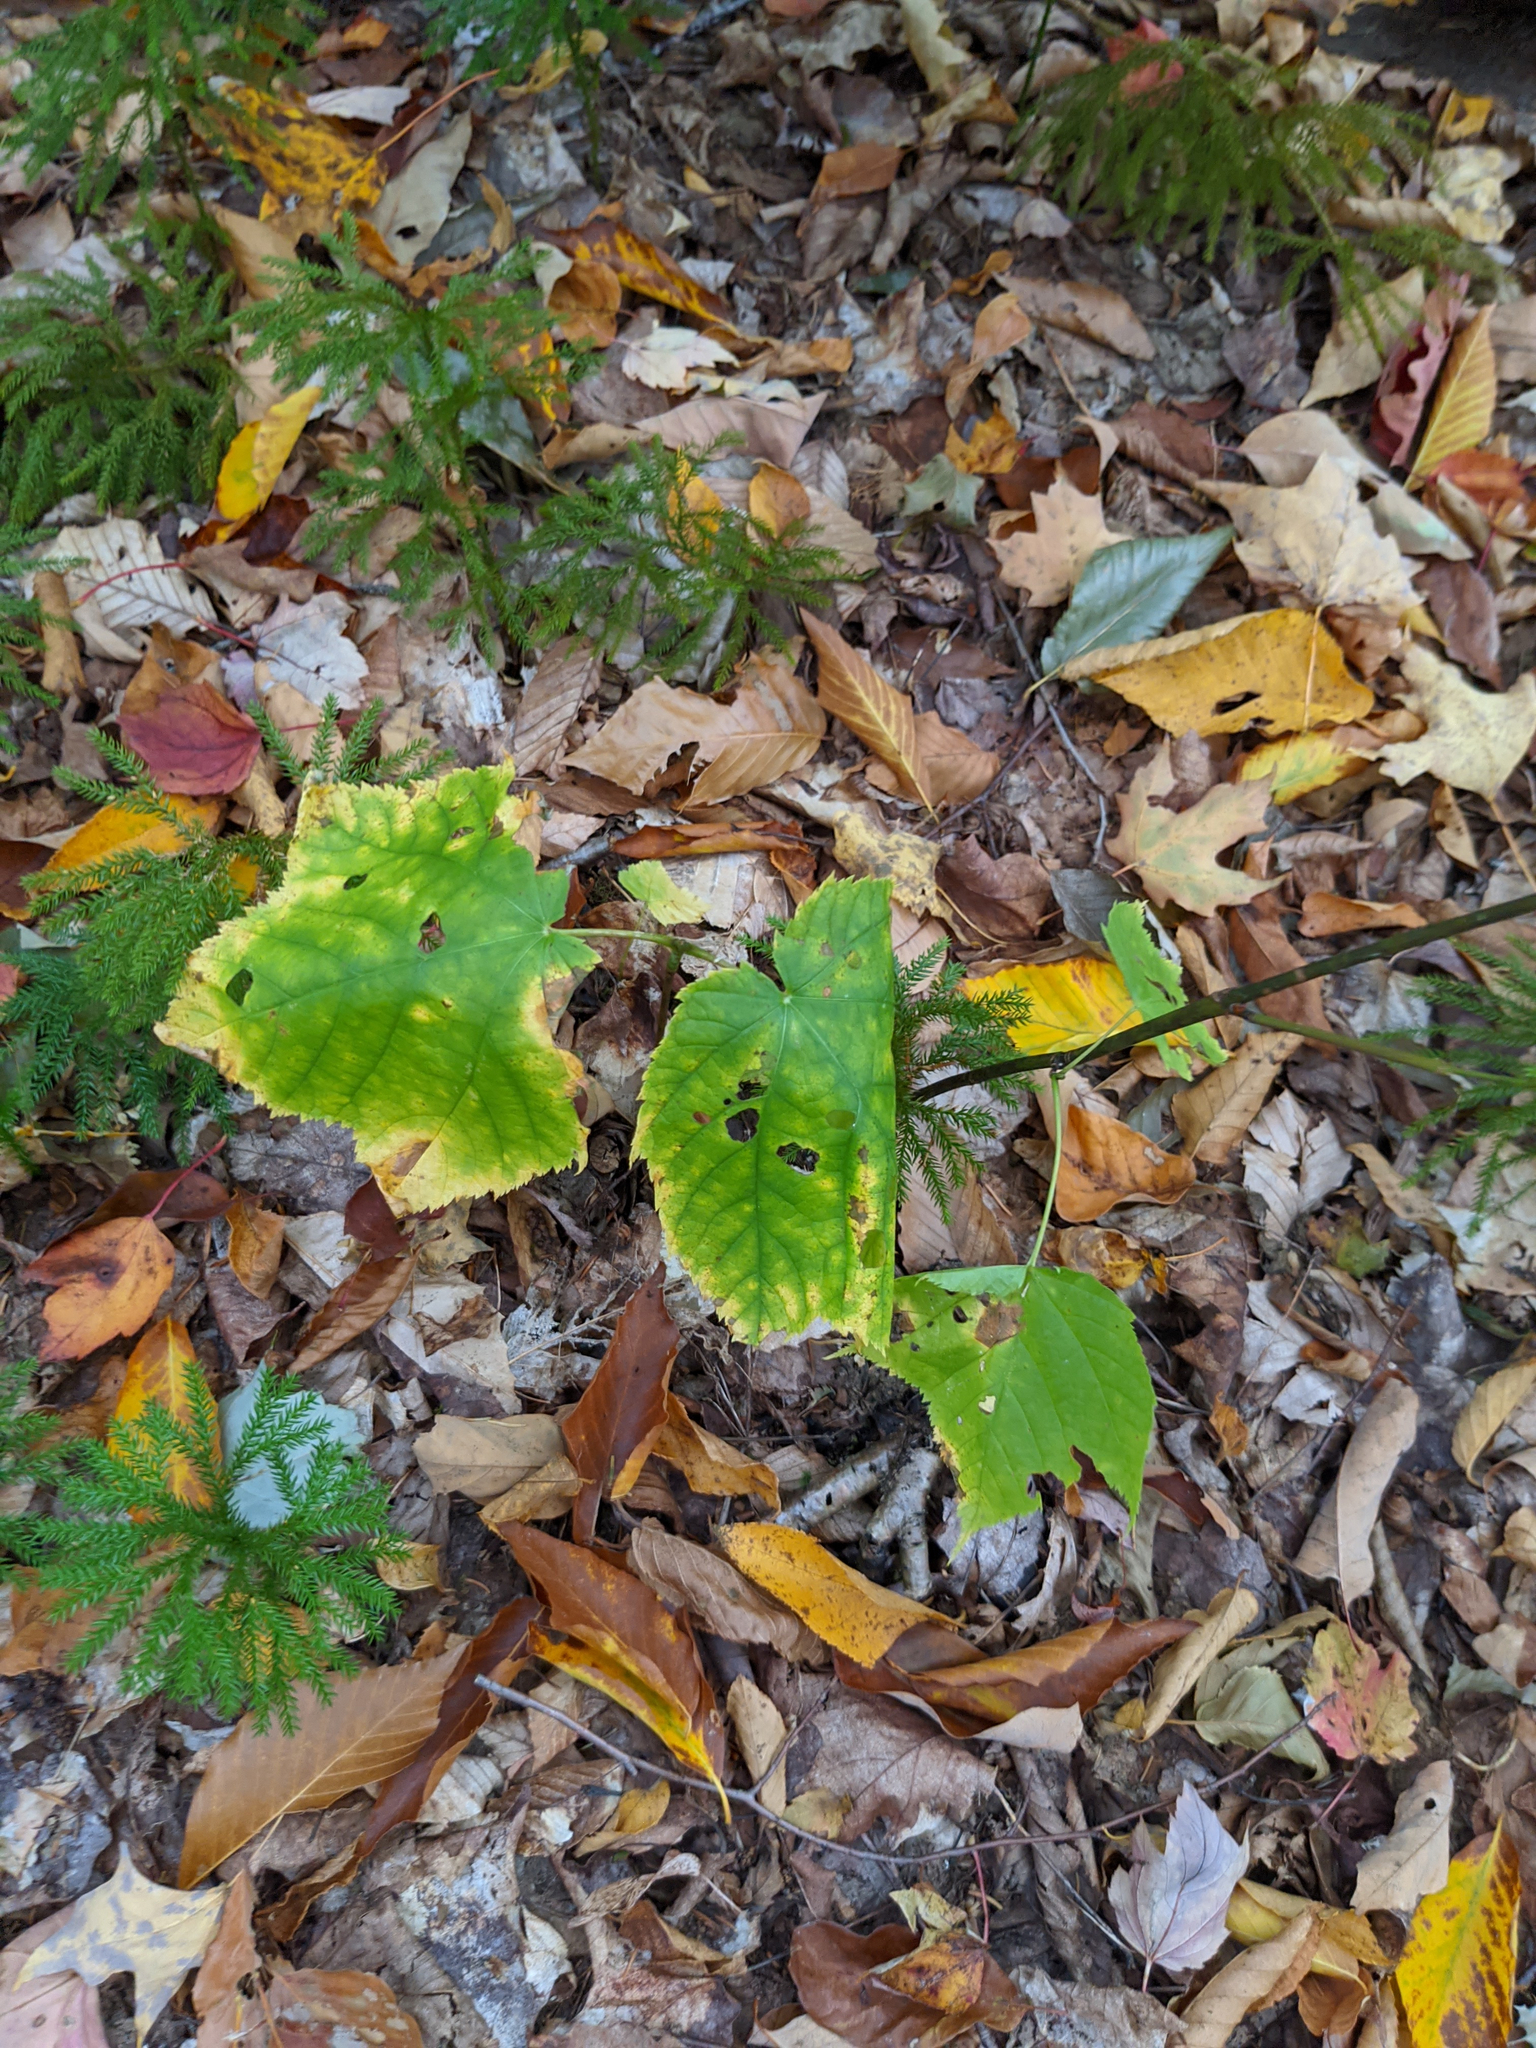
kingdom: Plantae
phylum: Tracheophyta
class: Magnoliopsida
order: Sapindales
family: Sapindaceae
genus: Acer
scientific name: Acer pensylvanicum
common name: Moosewood
